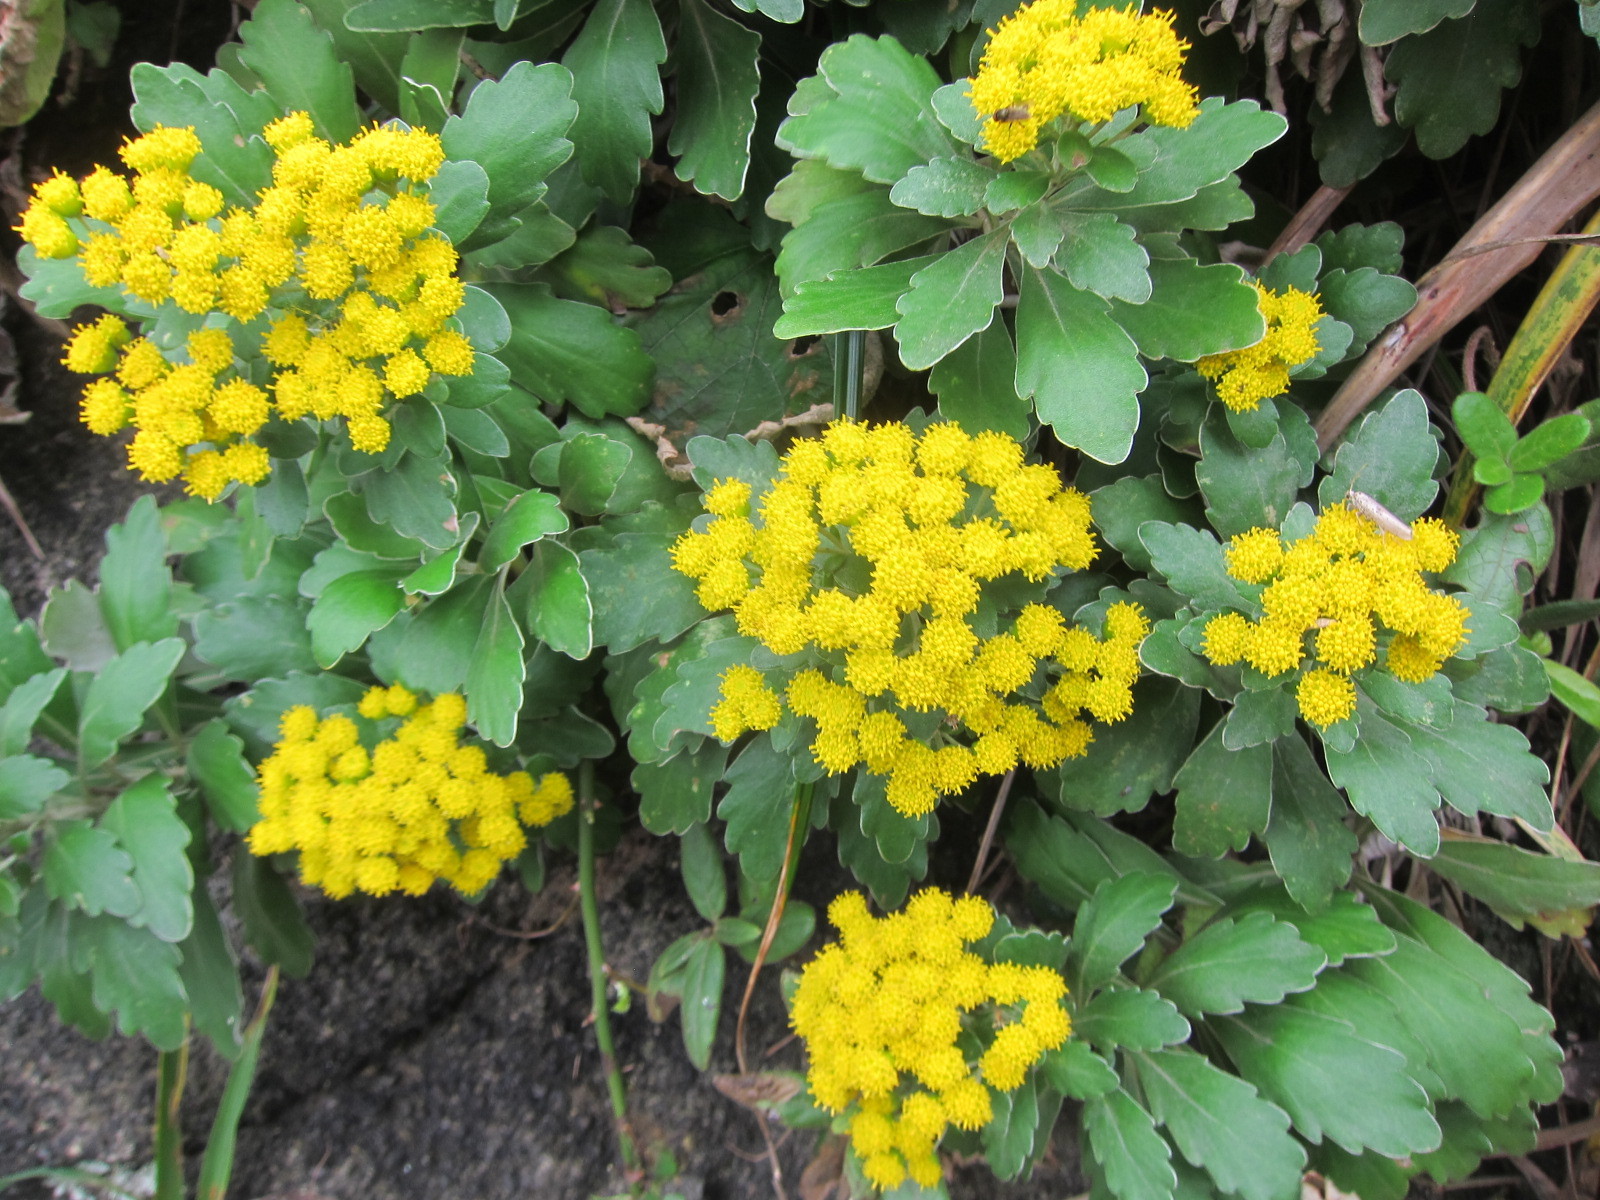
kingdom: Plantae
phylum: Tracheophyta
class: Magnoliopsida
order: Asterales
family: Asteraceae
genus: Ajania
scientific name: Ajania pacifica
